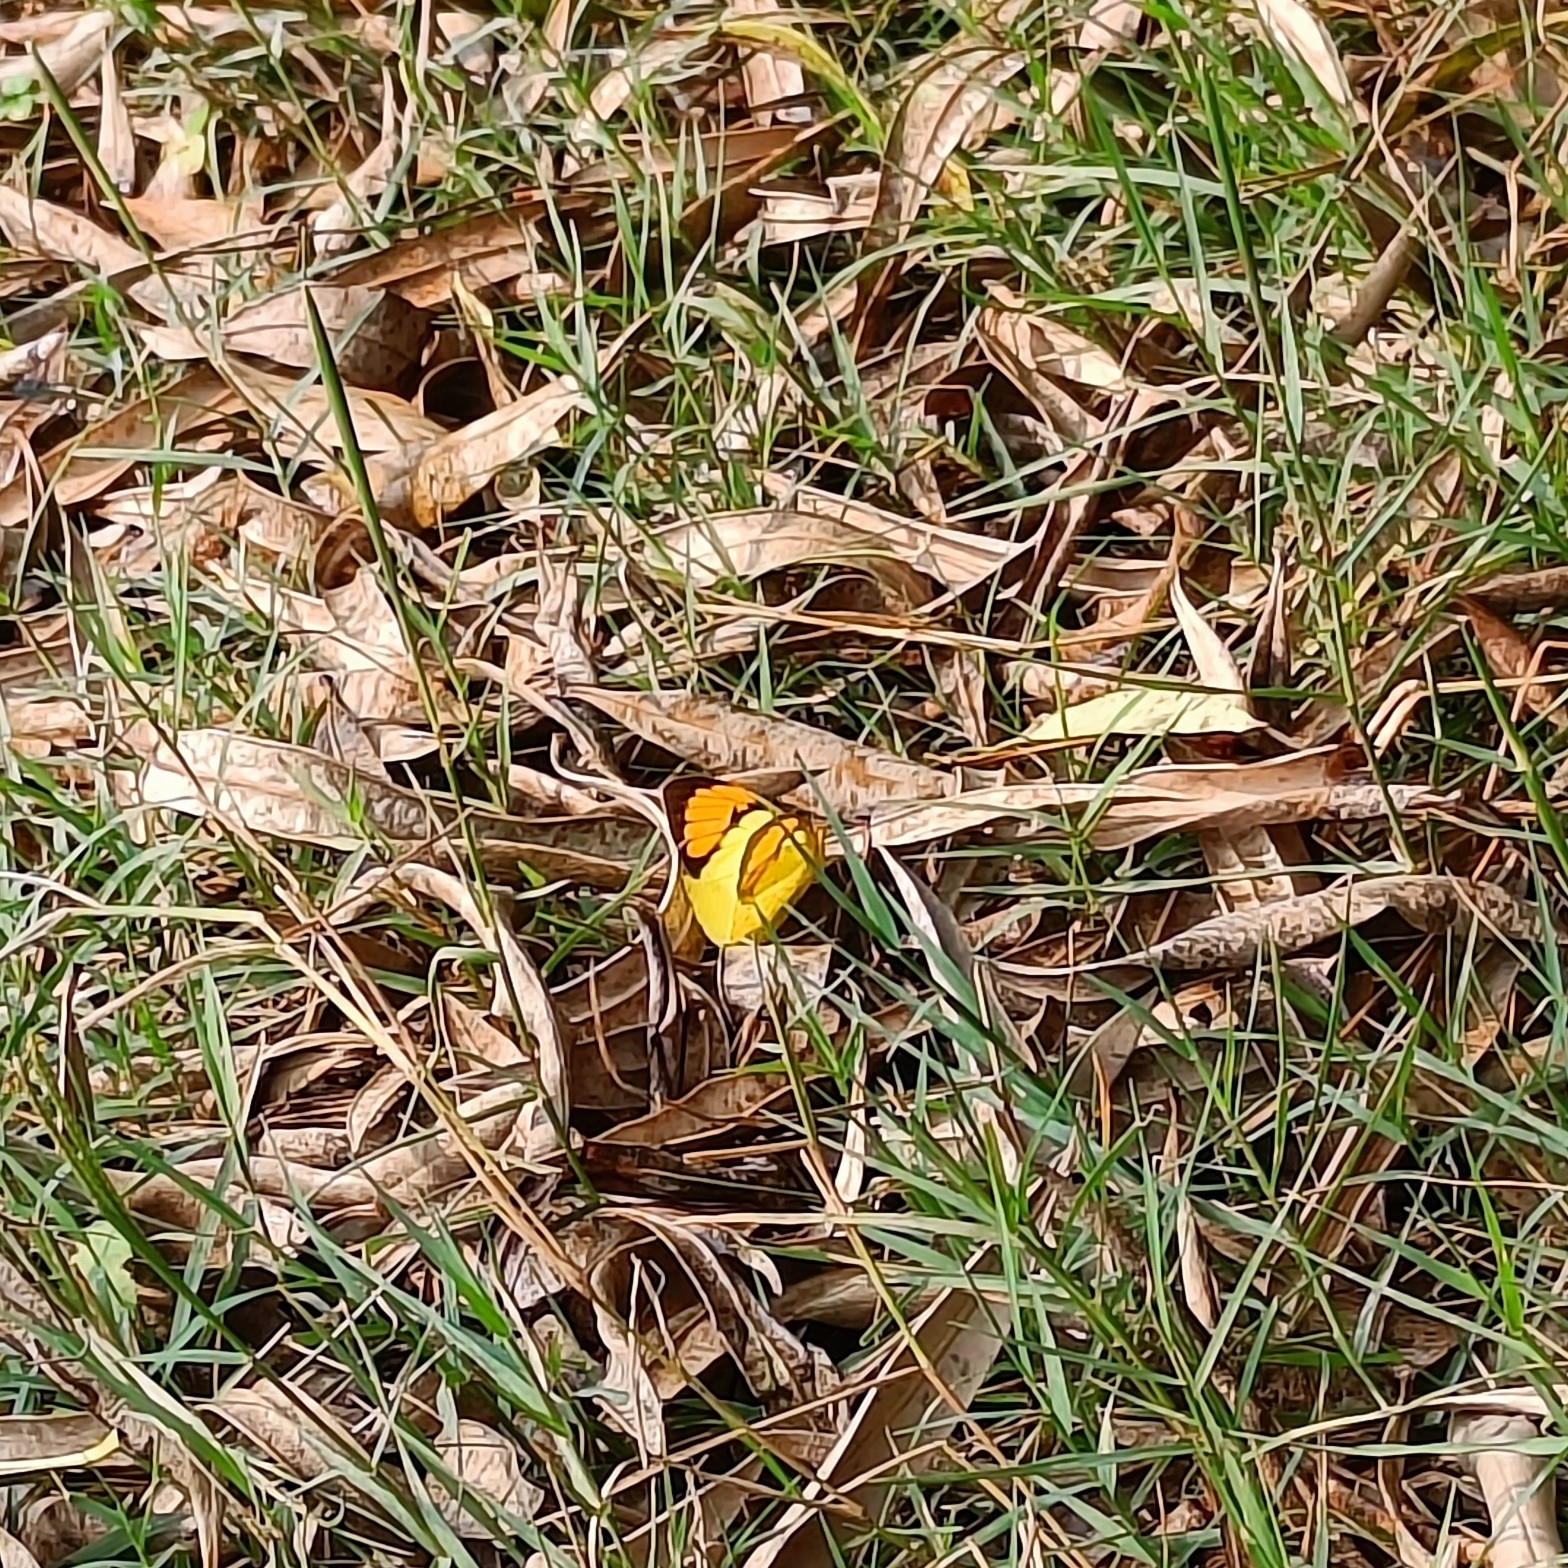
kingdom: Animalia
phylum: Arthropoda
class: Insecta
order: Lepidoptera
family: Pieridae
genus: Ixias
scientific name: Ixias pyrene
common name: Yellow orange tip
